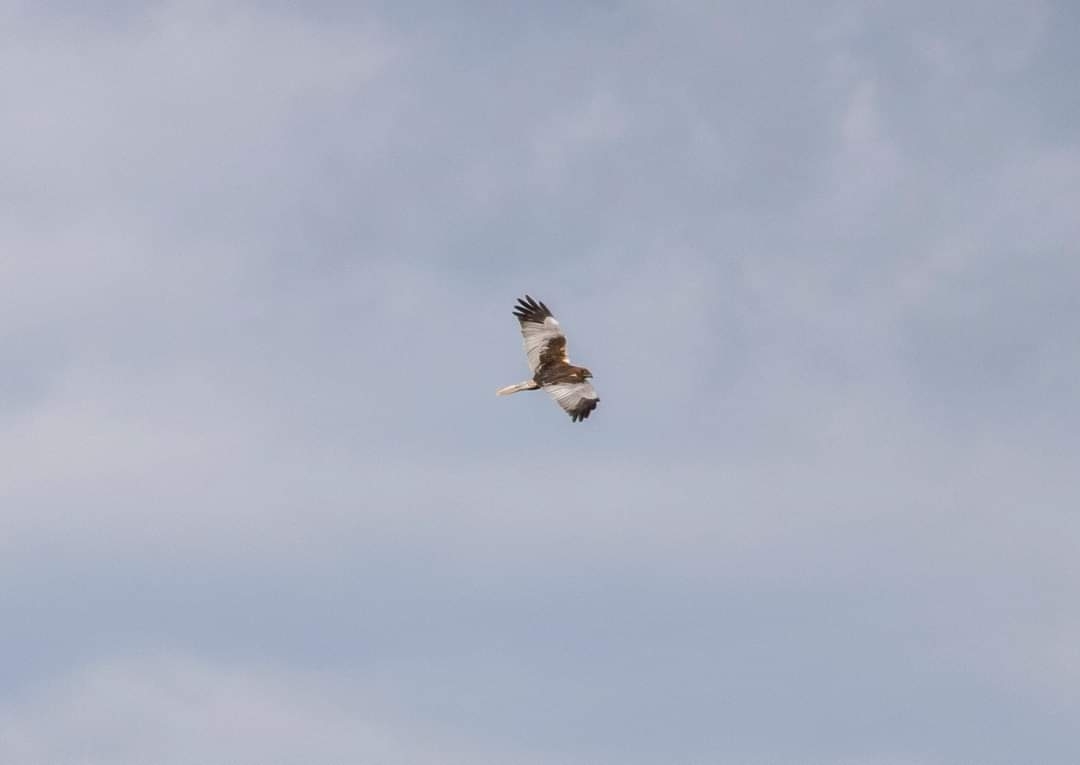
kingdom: Animalia
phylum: Chordata
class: Aves
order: Accipitriformes
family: Accipitridae
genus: Circus
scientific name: Circus aeruginosus
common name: Western marsh harrier
